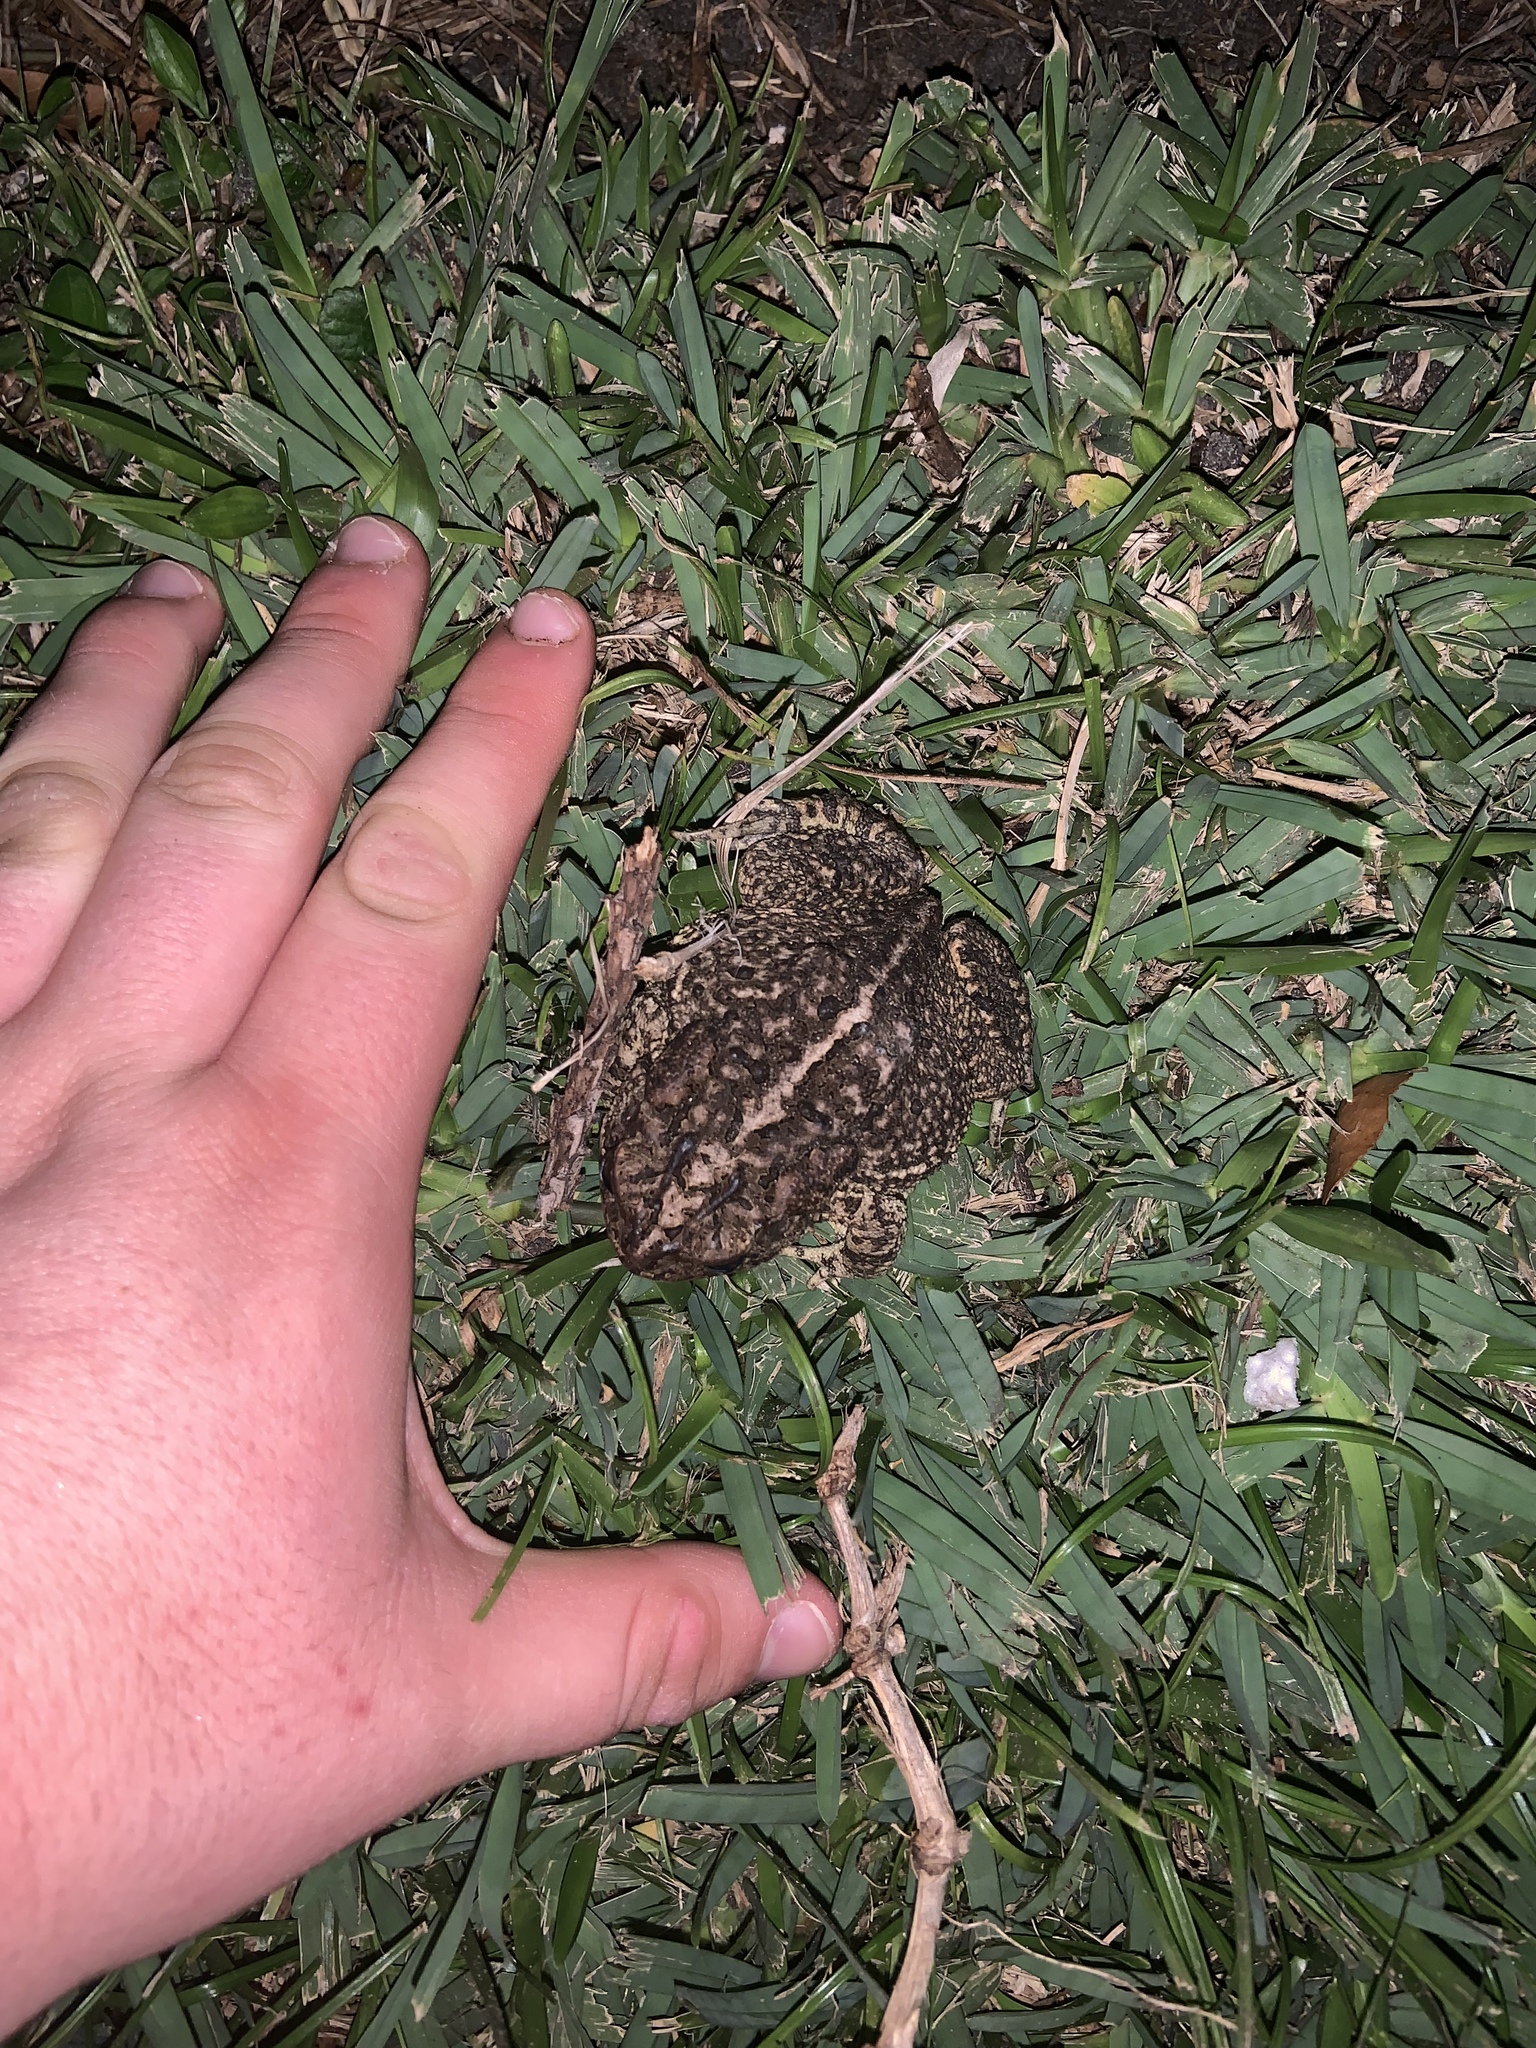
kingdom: Animalia
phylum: Chordata
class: Amphibia
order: Anura
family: Bufonidae
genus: Anaxyrus
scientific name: Anaxyrus terrestris
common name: Southern toad
